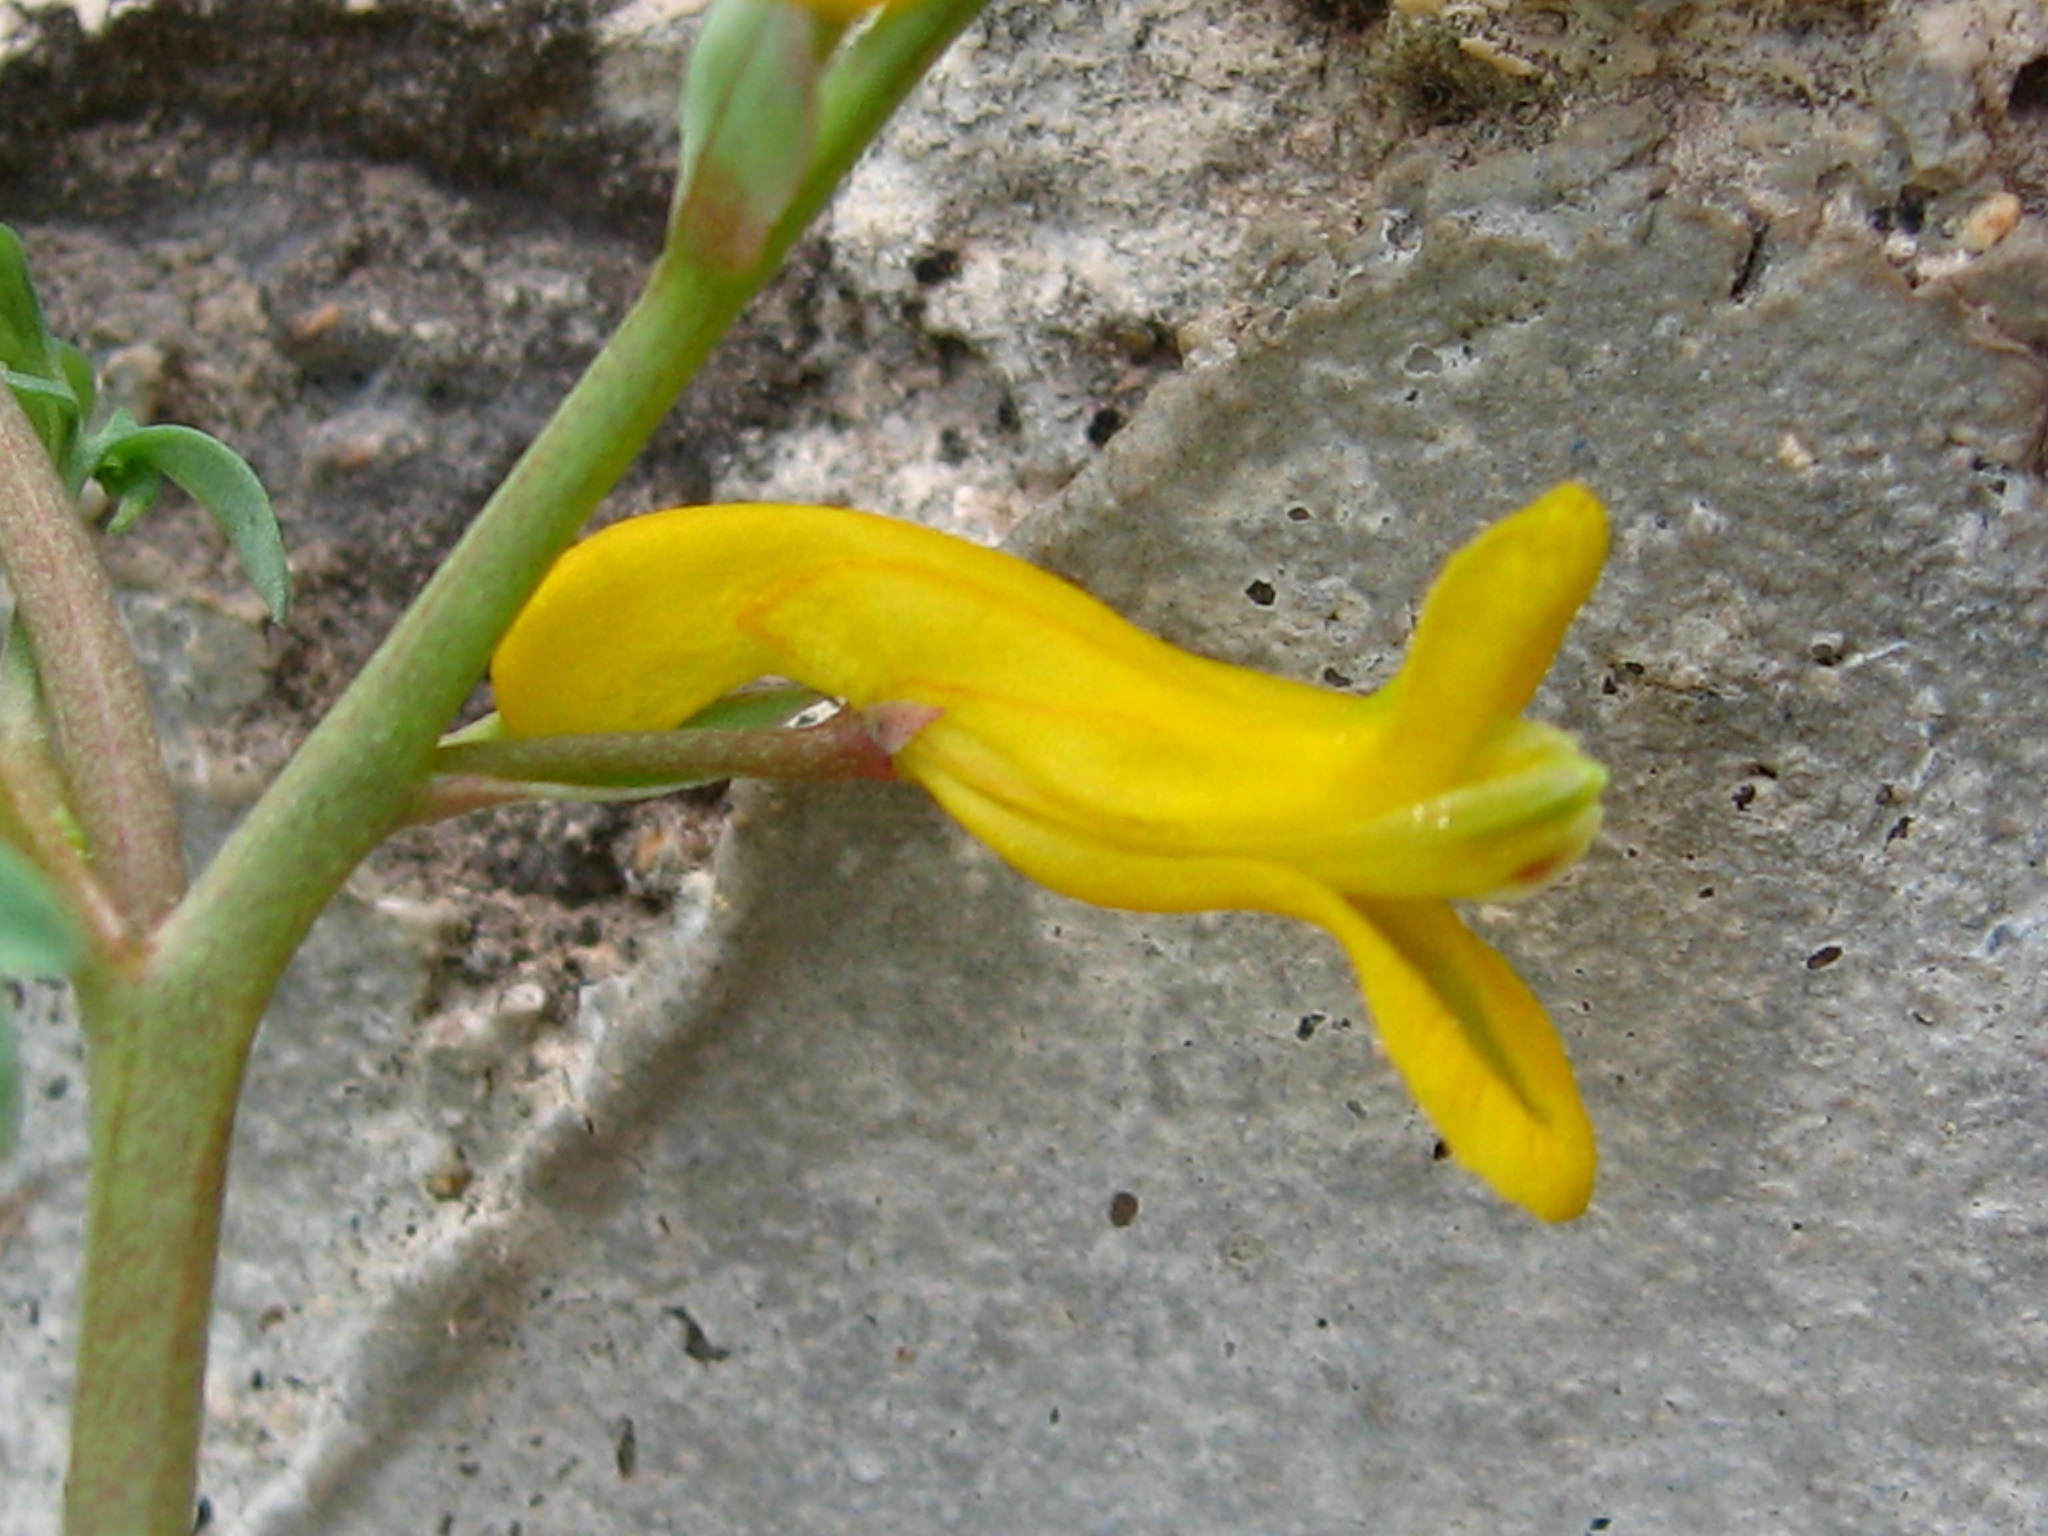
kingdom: Plantae
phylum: Tracheophyta
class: Magnoliopsida
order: Ranunculales
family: Papaveraceae
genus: Corydalis
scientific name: Corydalis aurea
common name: Golden corydalis
